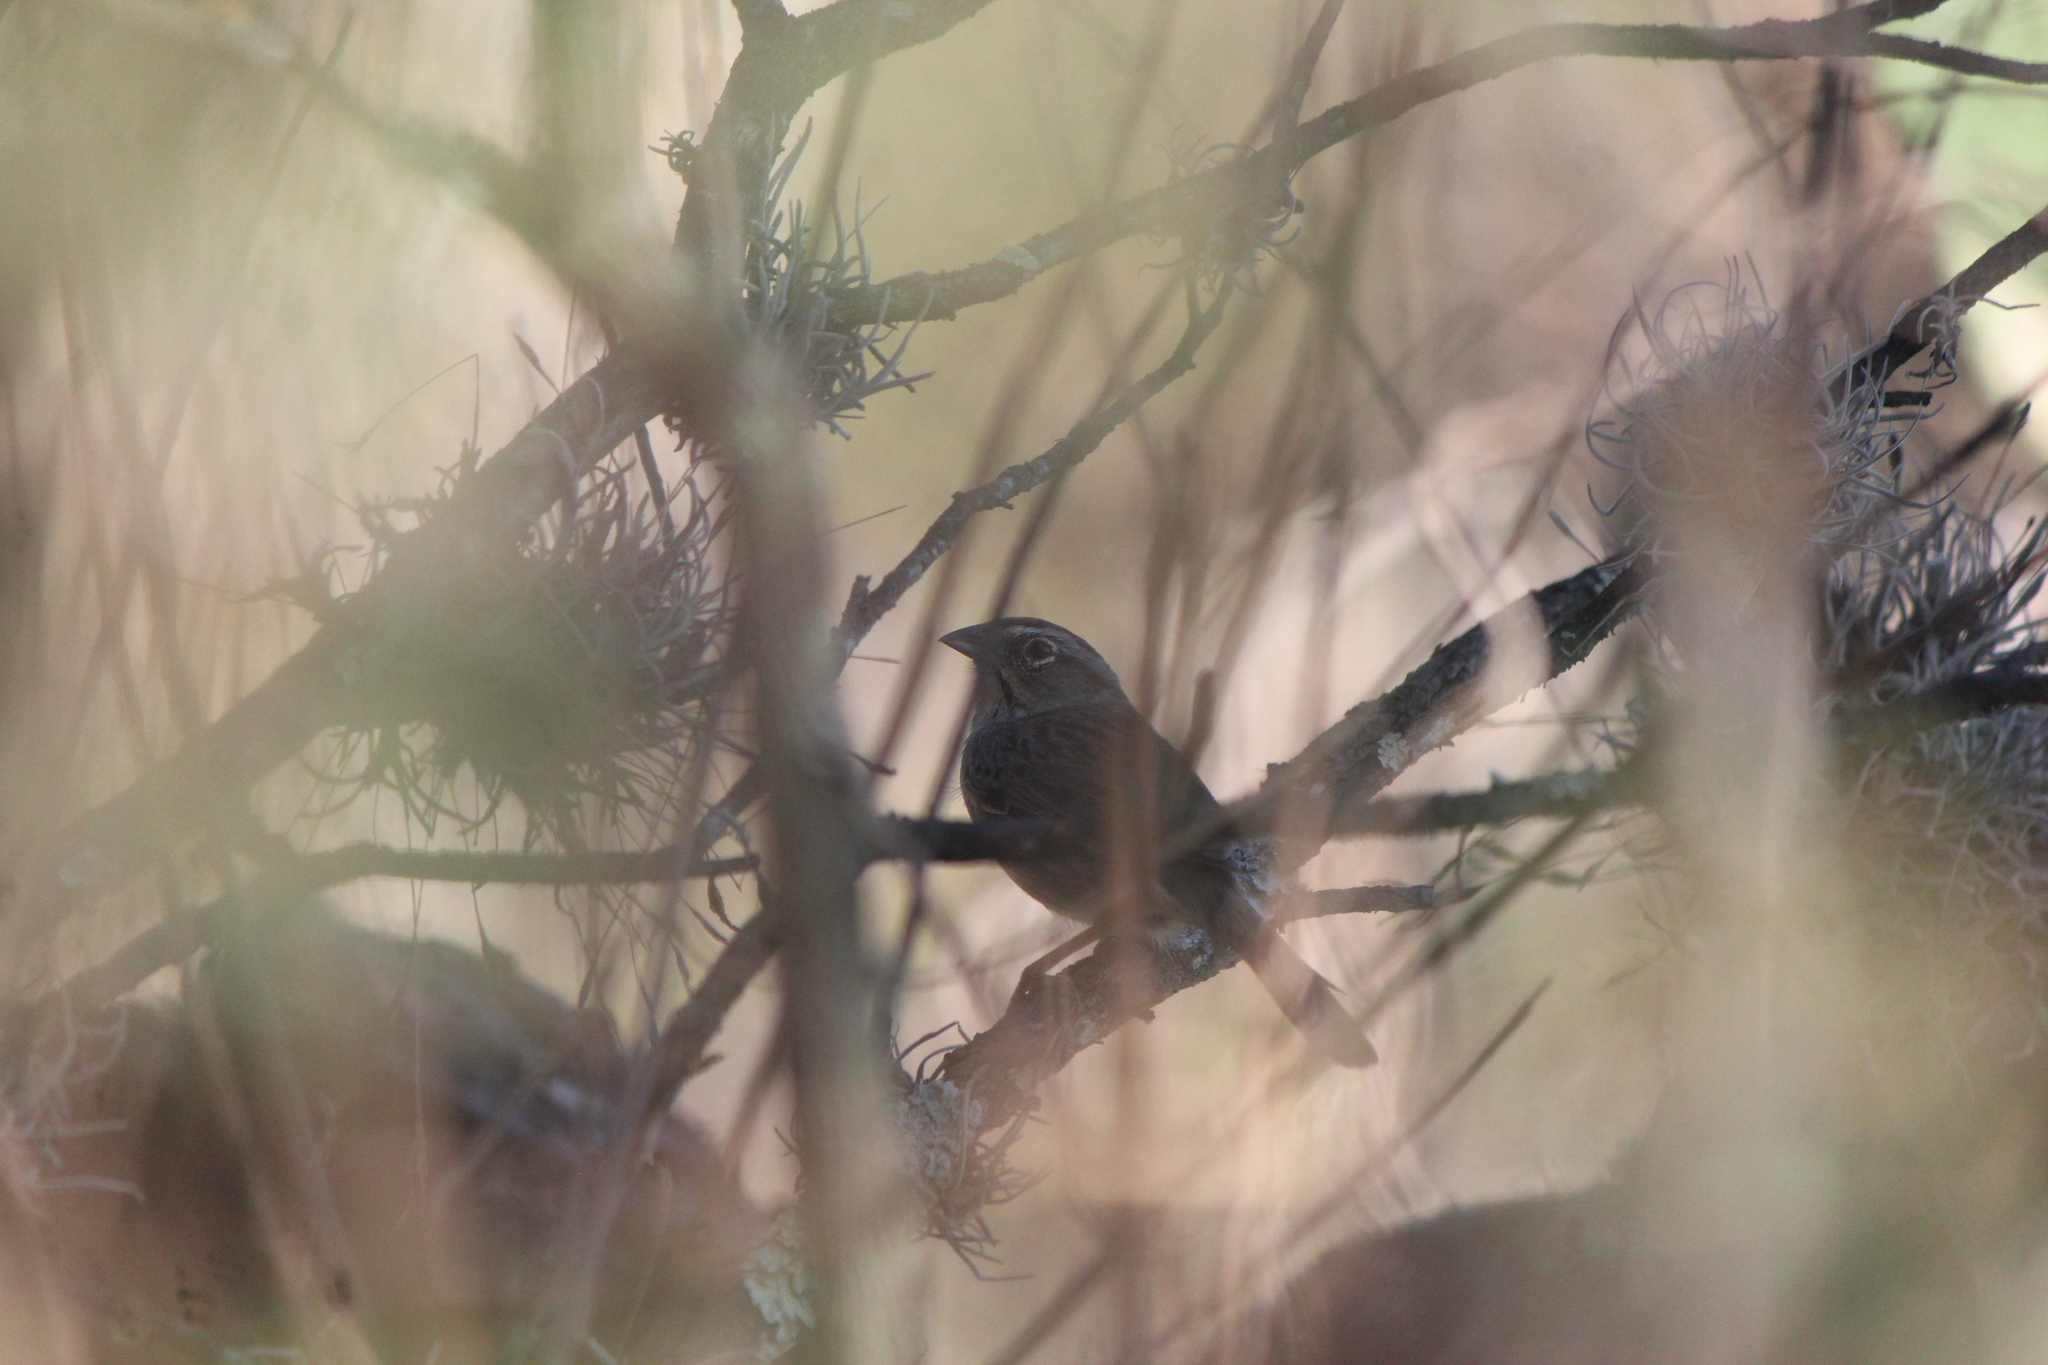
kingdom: Animalia
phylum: Chordata
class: Aves
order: Passeriformes
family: Passerellidae
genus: Aimophila
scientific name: Aimophila ruficeps
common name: Rufous-crowned sparrow
